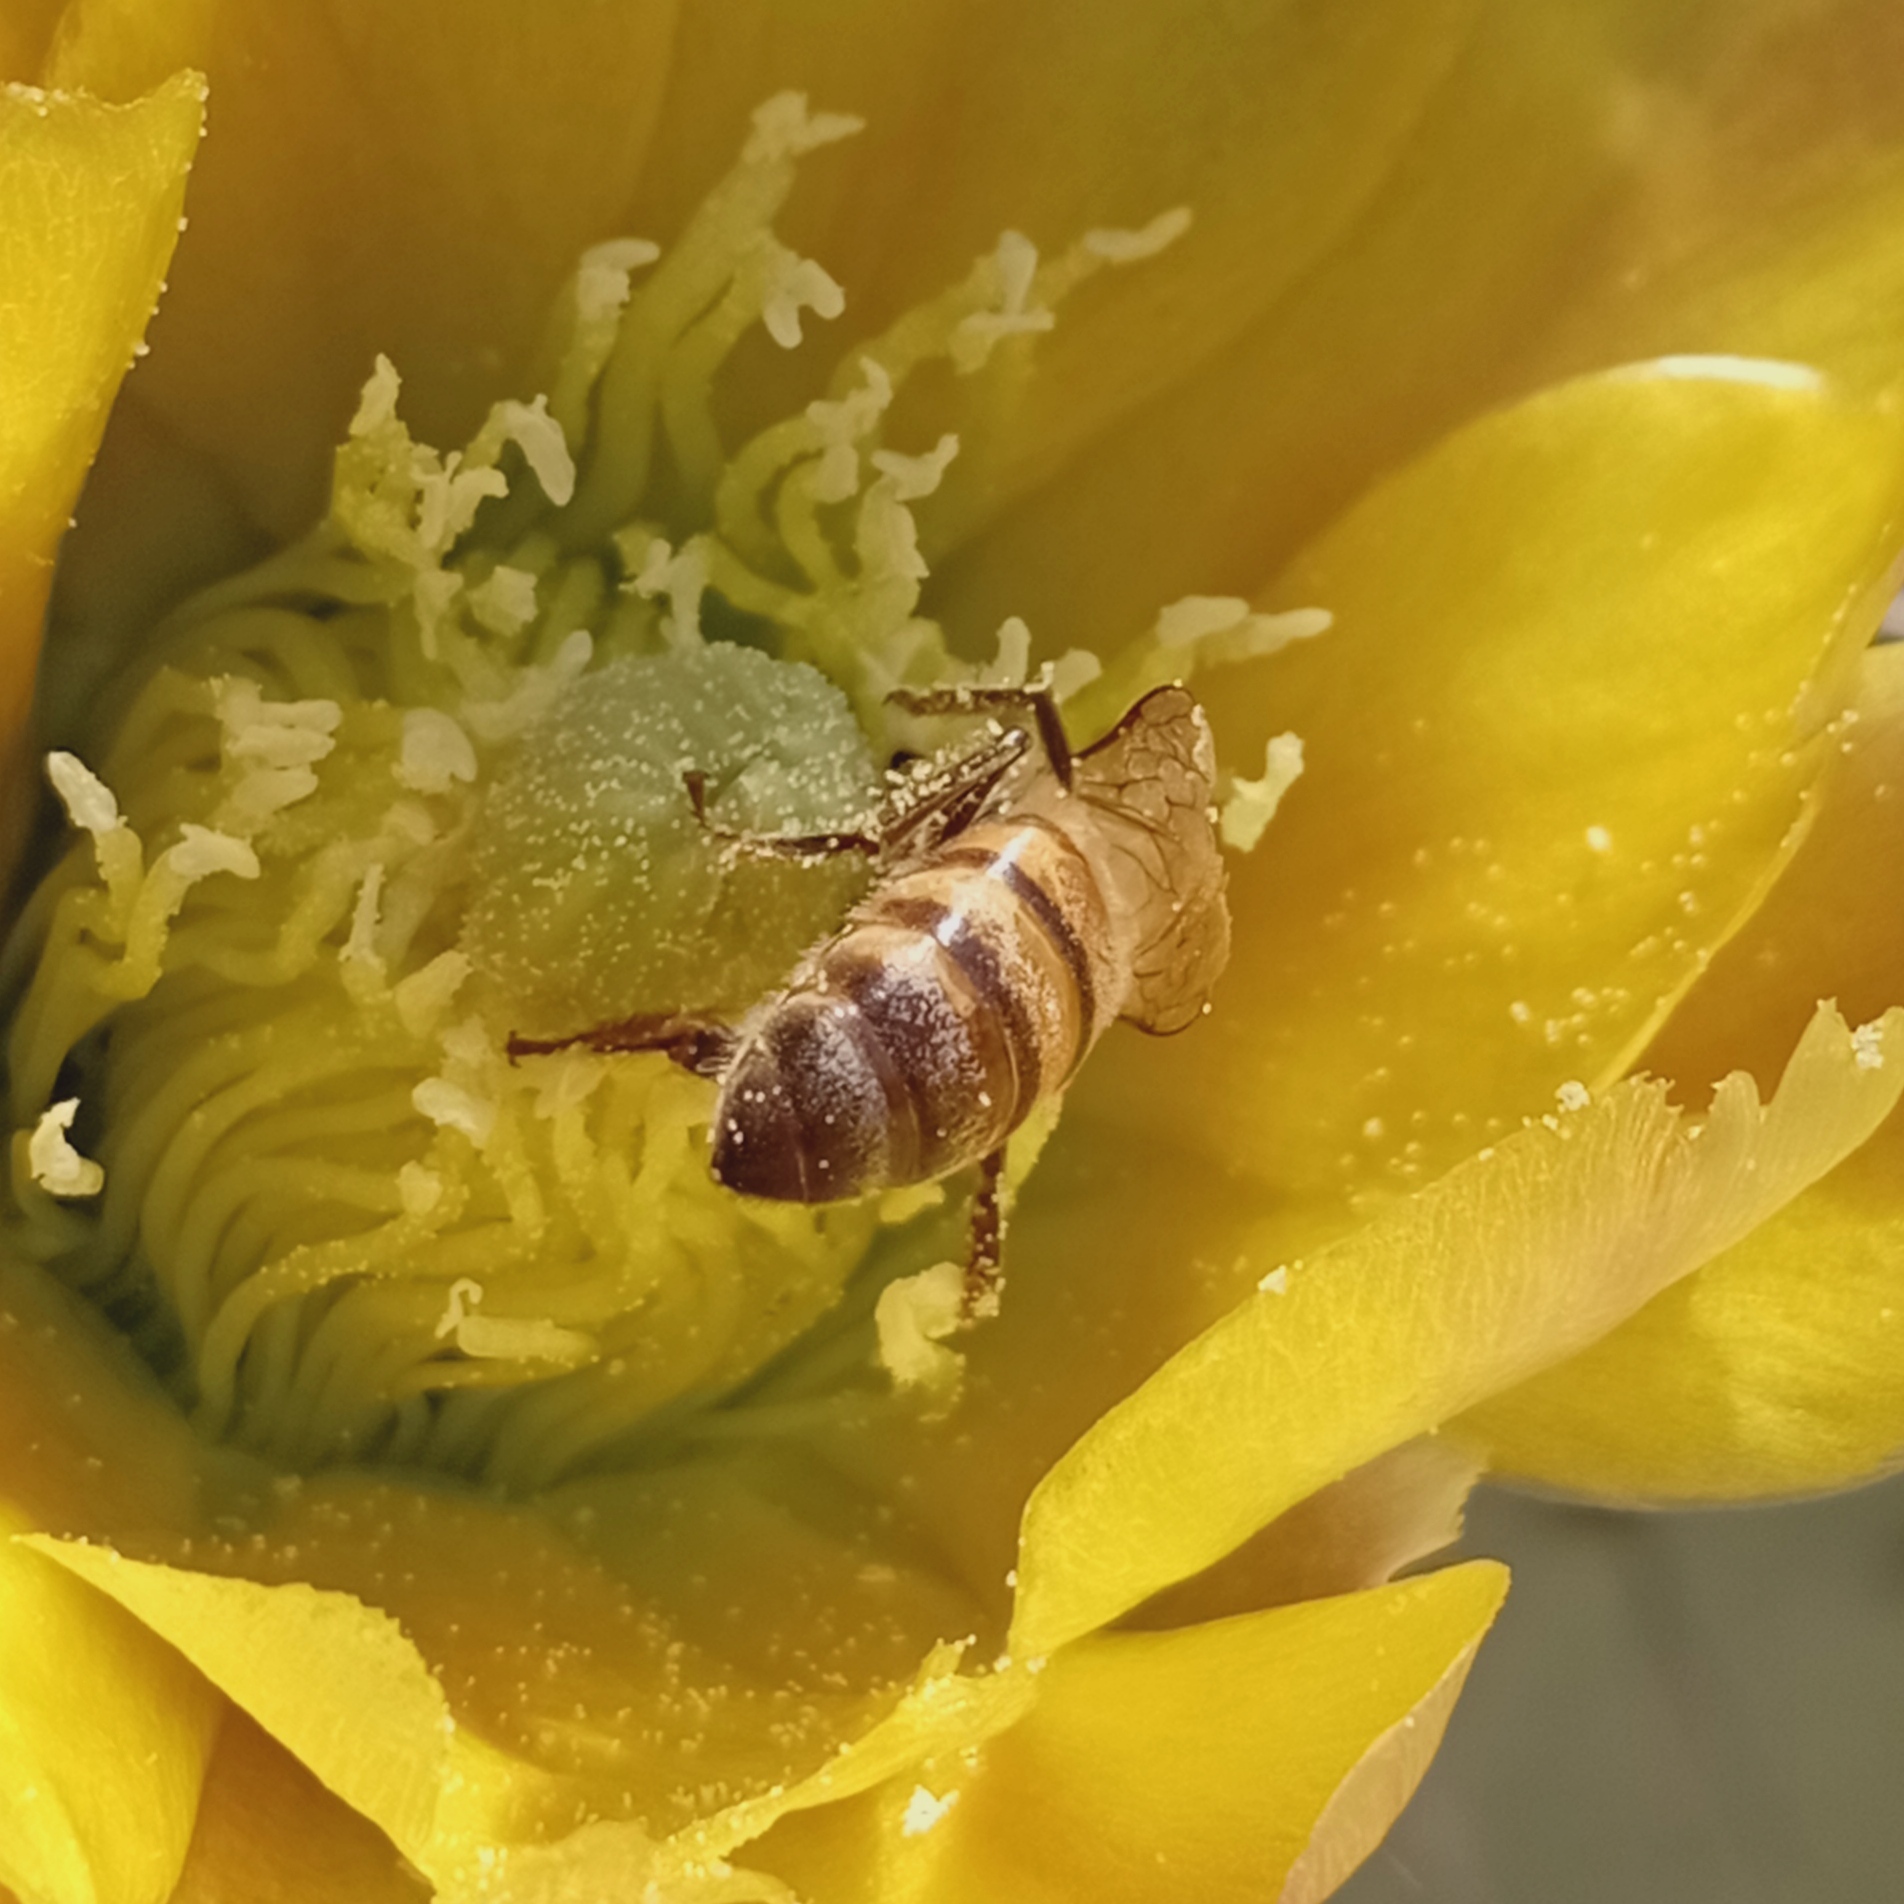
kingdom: Animalia
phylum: Arthropoda
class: Insecta
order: Hymenoptera
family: Apidae
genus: Apis
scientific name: Apis mellifera
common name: Honey bee
